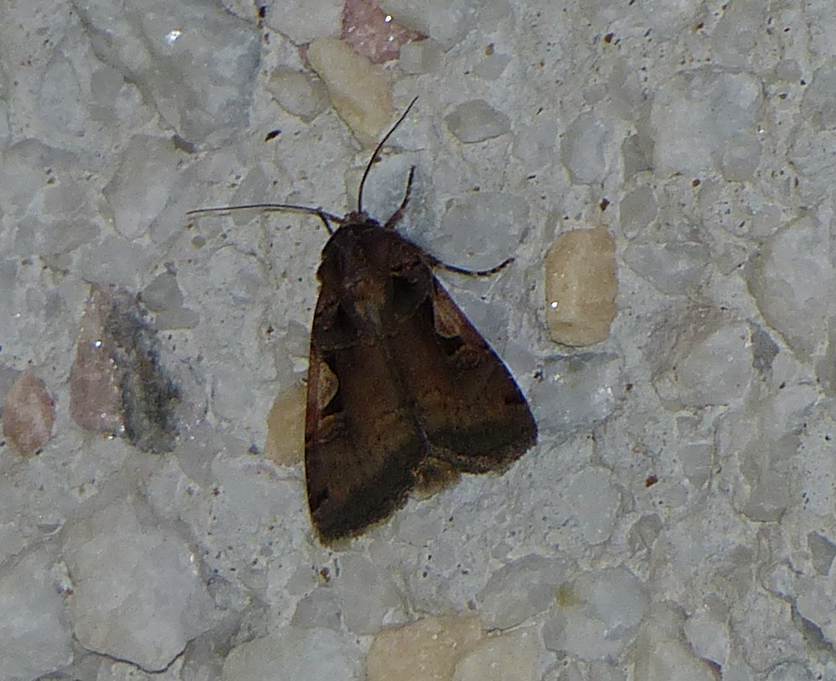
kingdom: Animalia
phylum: Arthropoda
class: Insecta
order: Lepidoptera
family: Noctuidae
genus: Xestia
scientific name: Xestia
